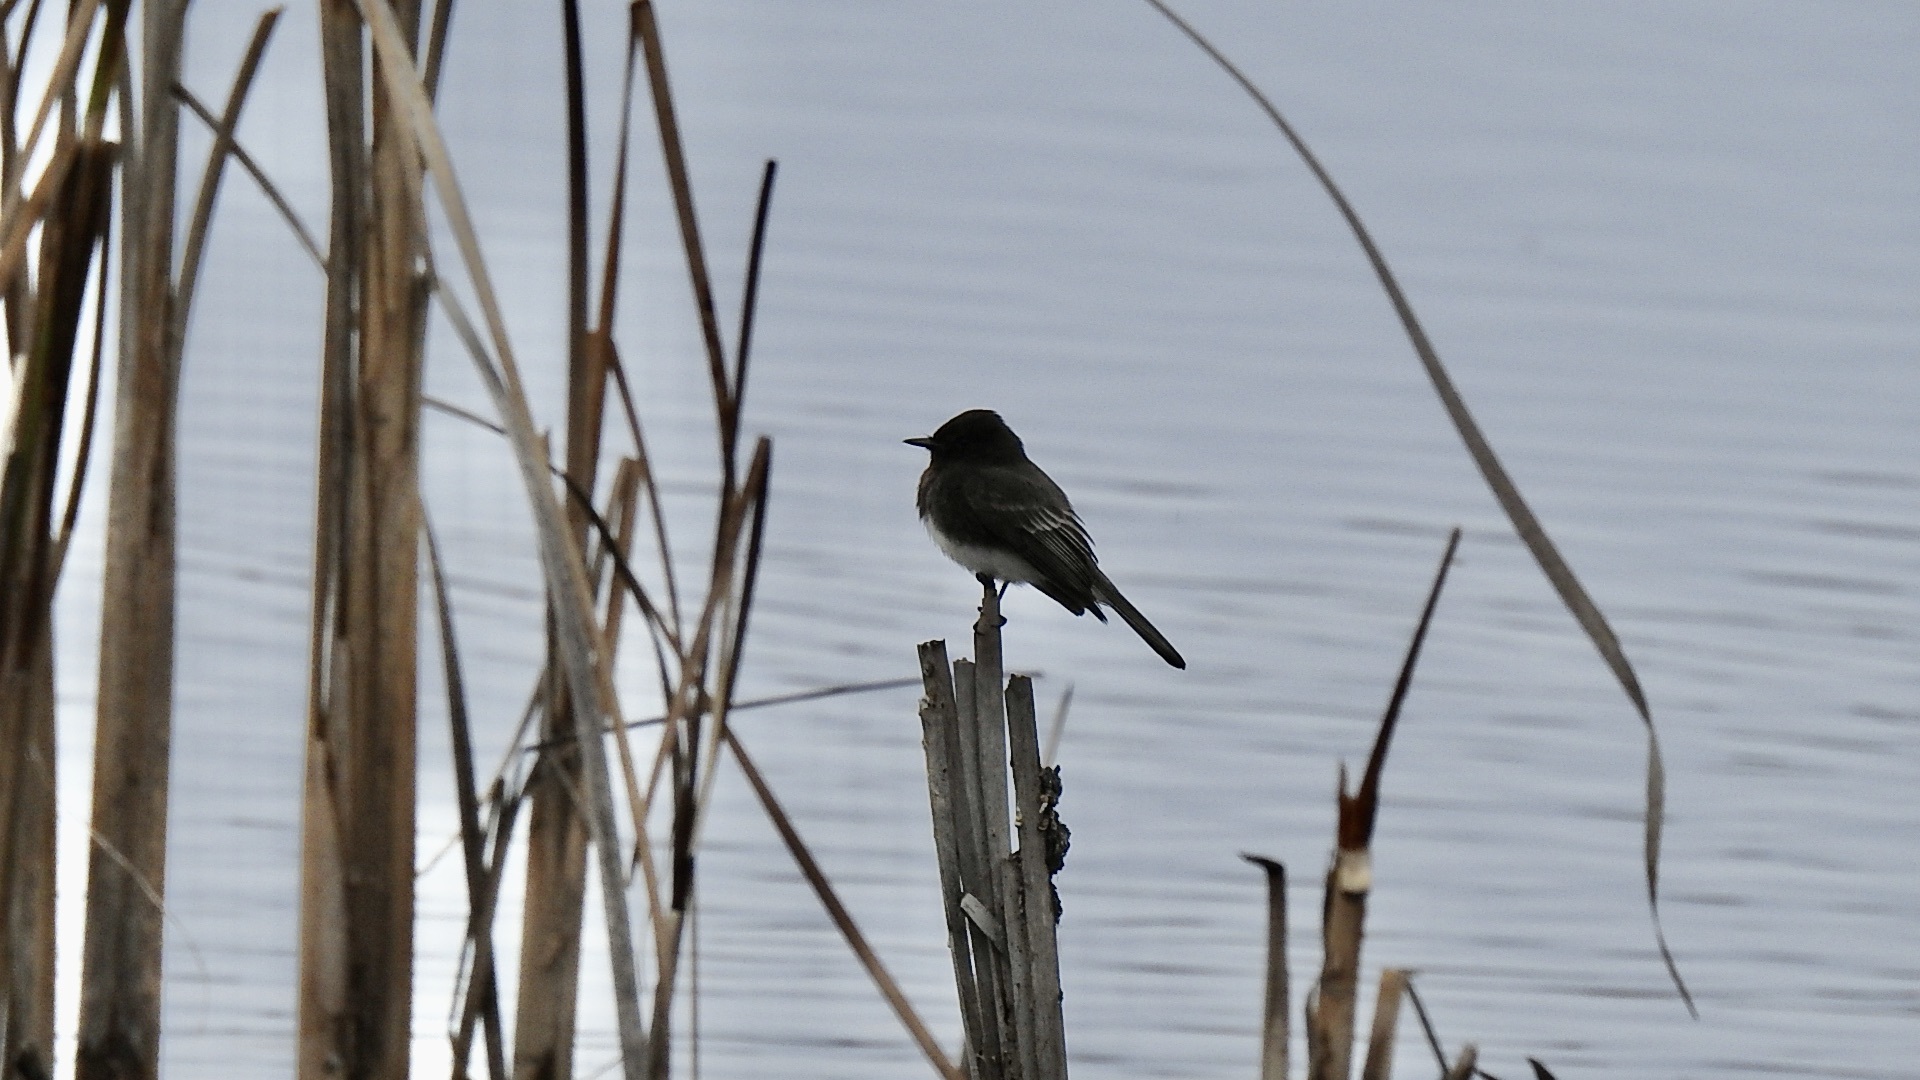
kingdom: Animalia
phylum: Chordata
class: Aves
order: Passeriformes
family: Tyrannidae
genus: Sayornis
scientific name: Sayornis nigricans
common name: Black phoebe
